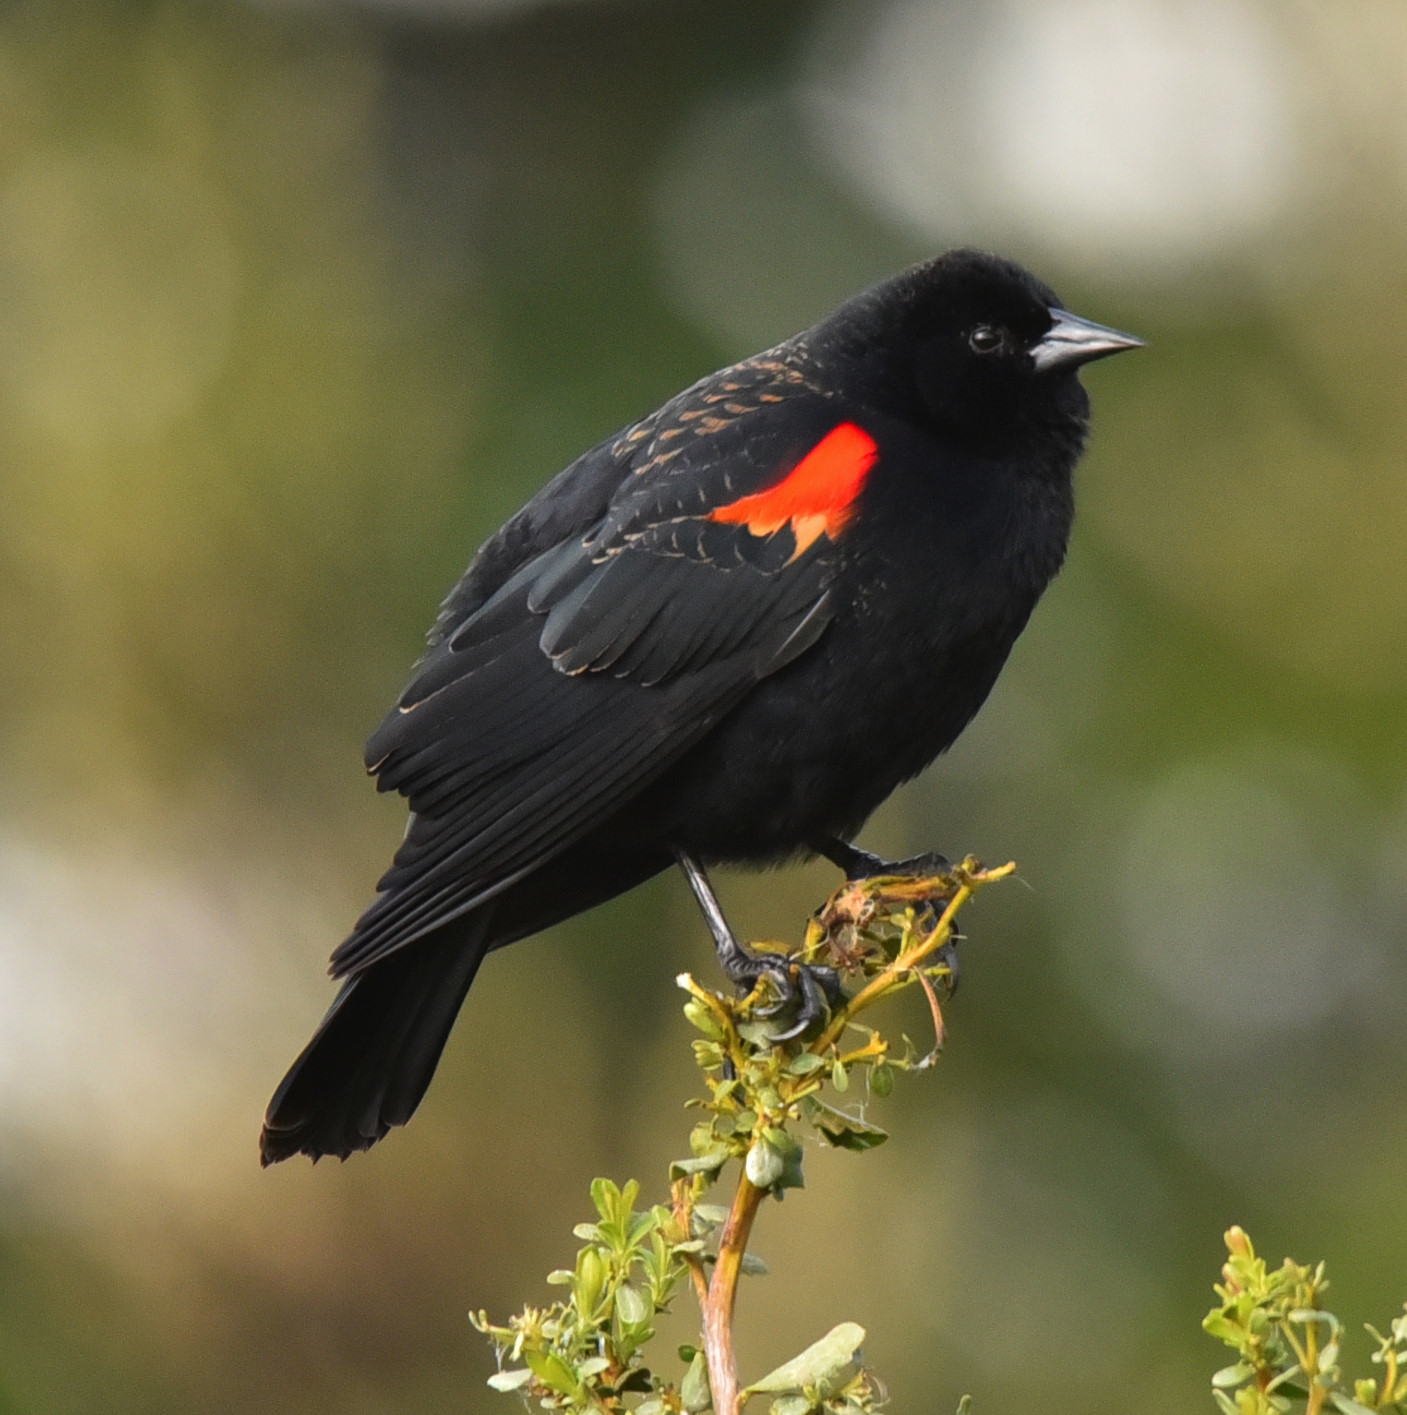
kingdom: Animalia
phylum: Chordata
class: Aves
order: Passeriformes
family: Icteridae
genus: Agelaius
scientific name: Agelaius phoeniceus
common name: Red-winged blackbird
